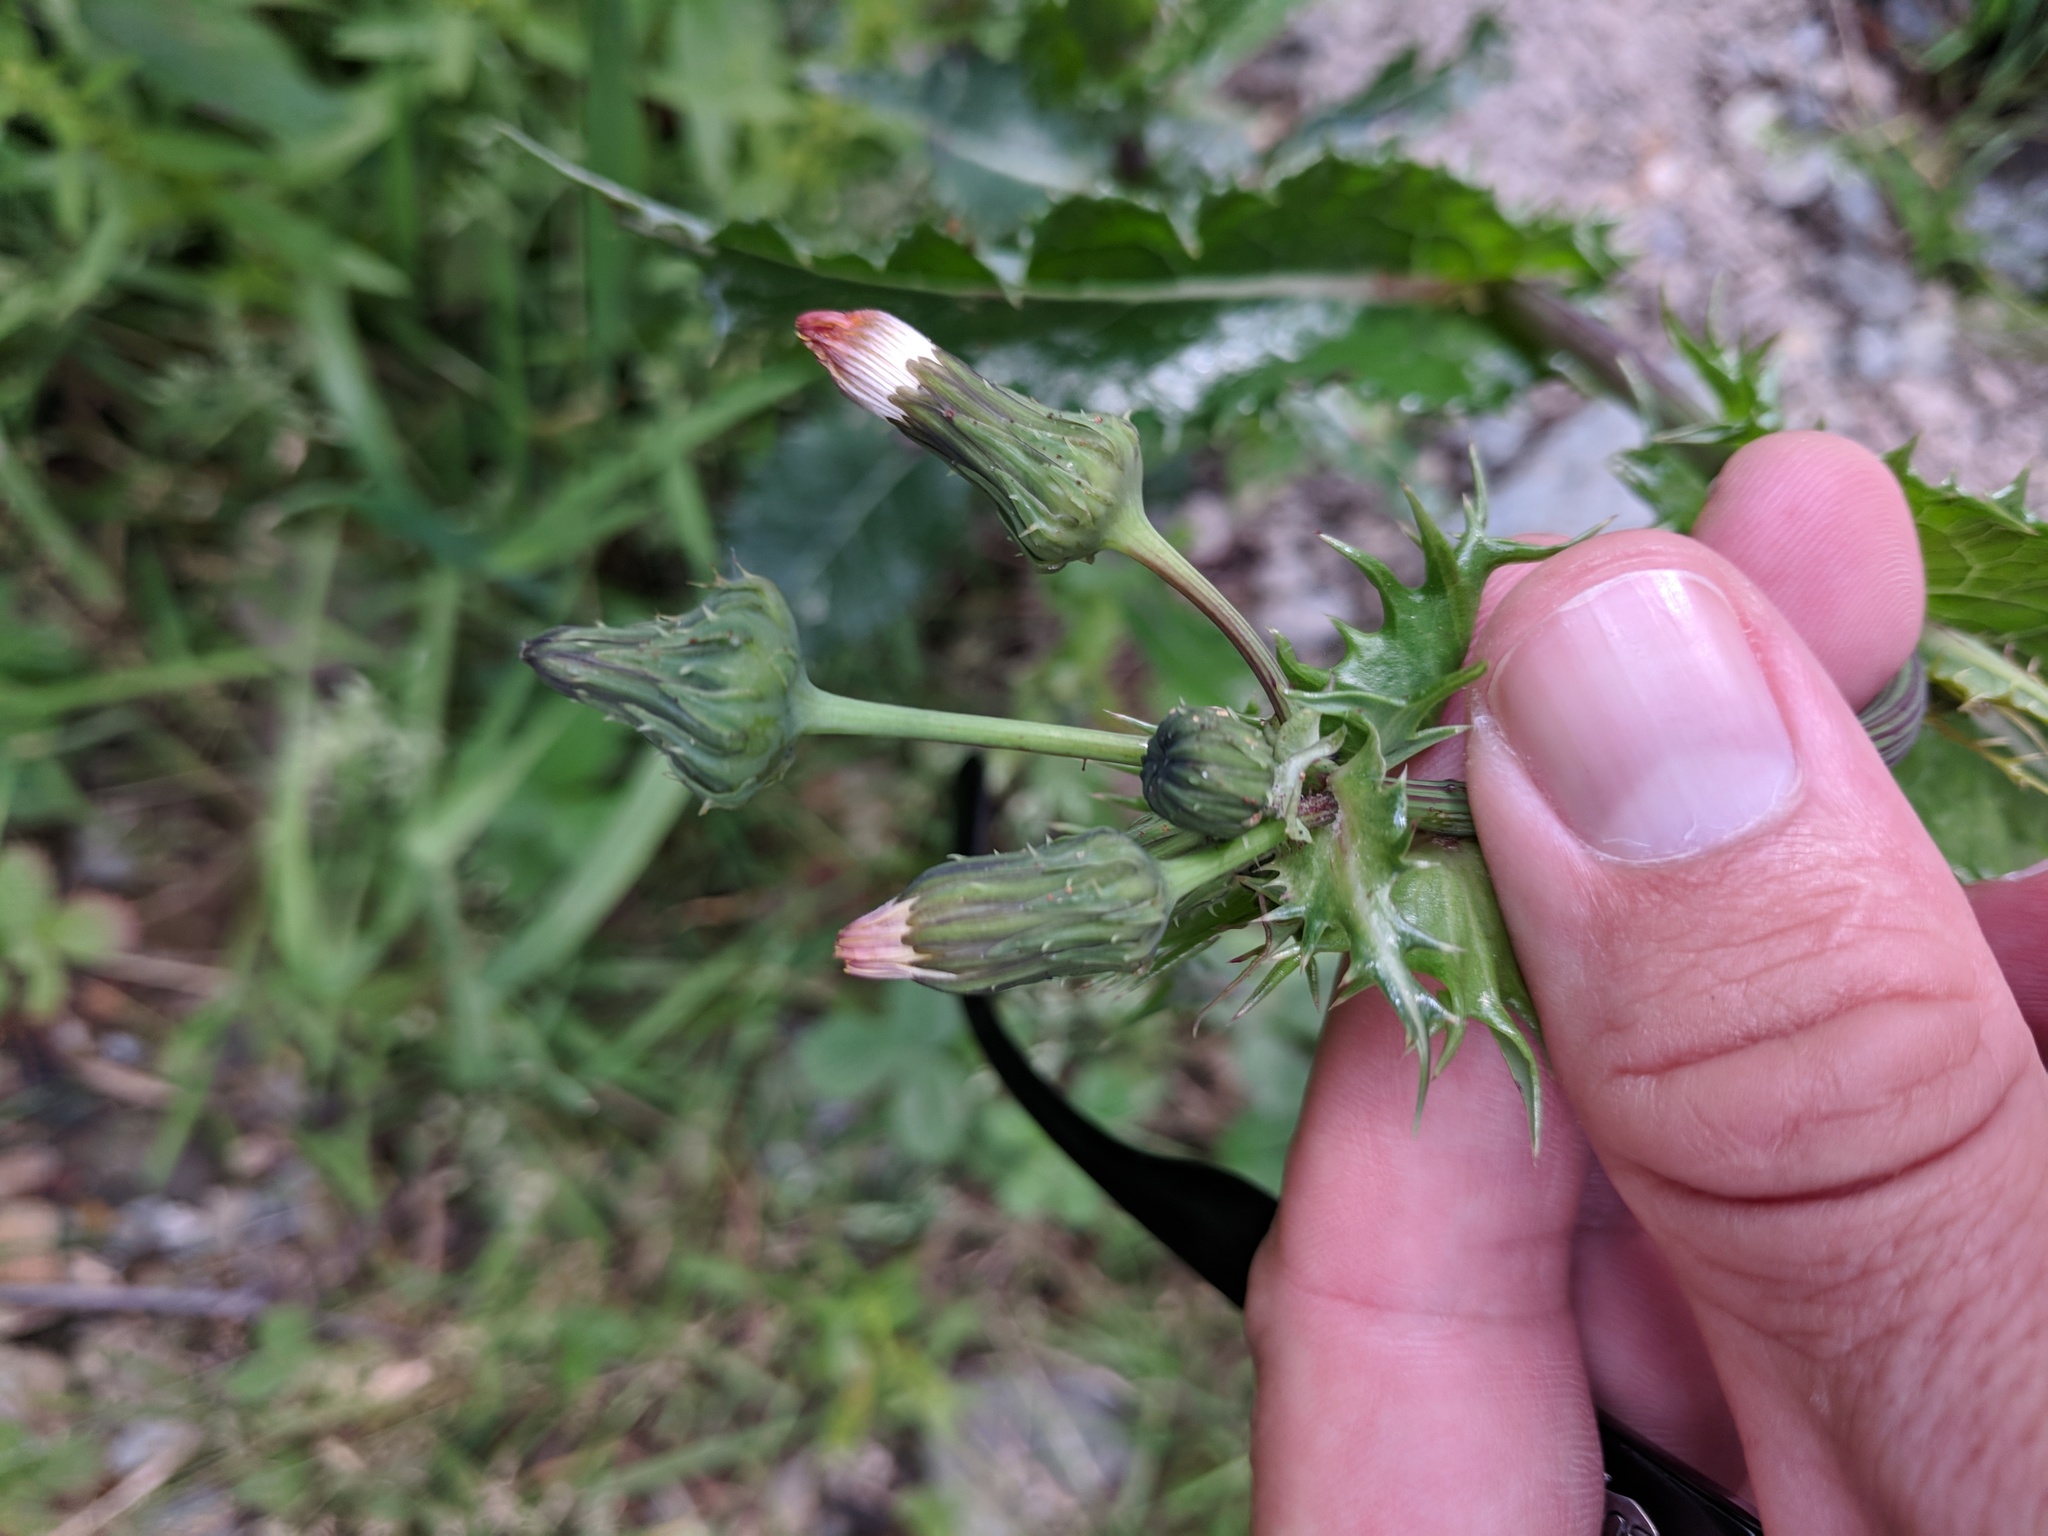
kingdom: Plantae
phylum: Tracheophyta
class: Magnoliopsida
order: Asterales
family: Asteraceae
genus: Sonchus
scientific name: Sonchus asper
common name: Prickly sow-thistle
